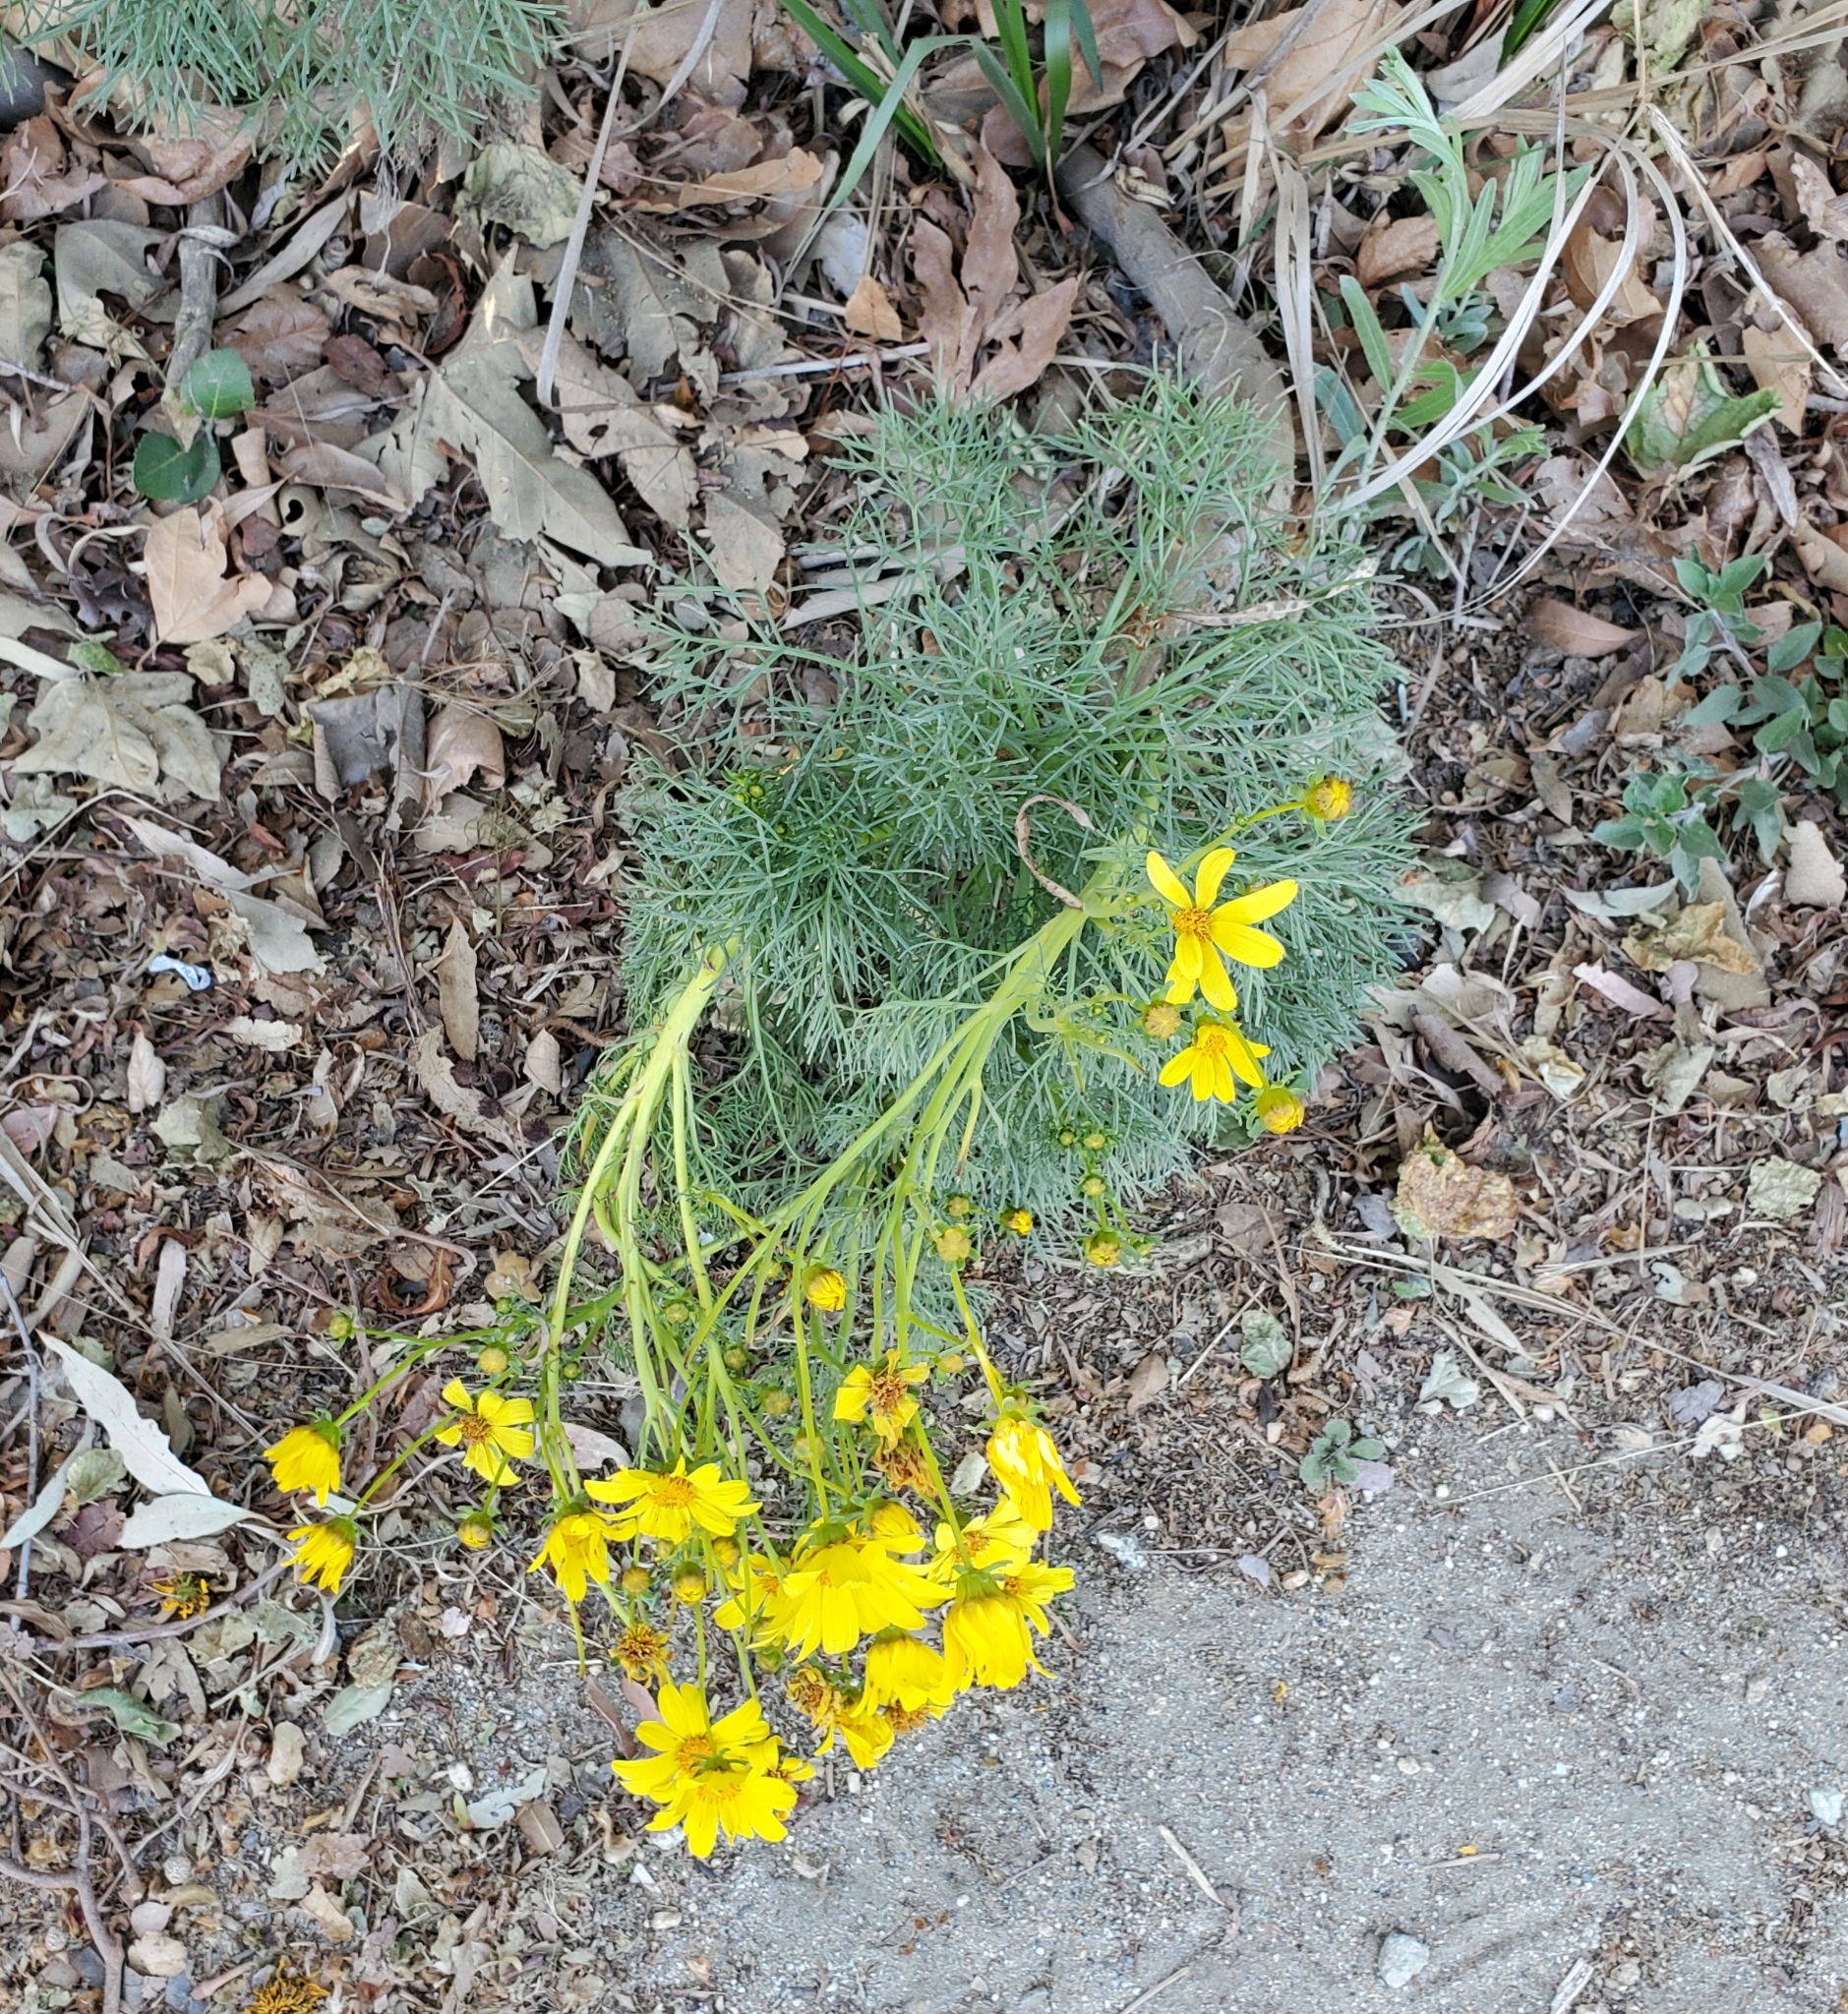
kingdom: Plantae
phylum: Tracheophyta
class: Magnoliopsida
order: Asterales
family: Asteraceae
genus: Coreopsis
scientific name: Coreopsis gigantea
